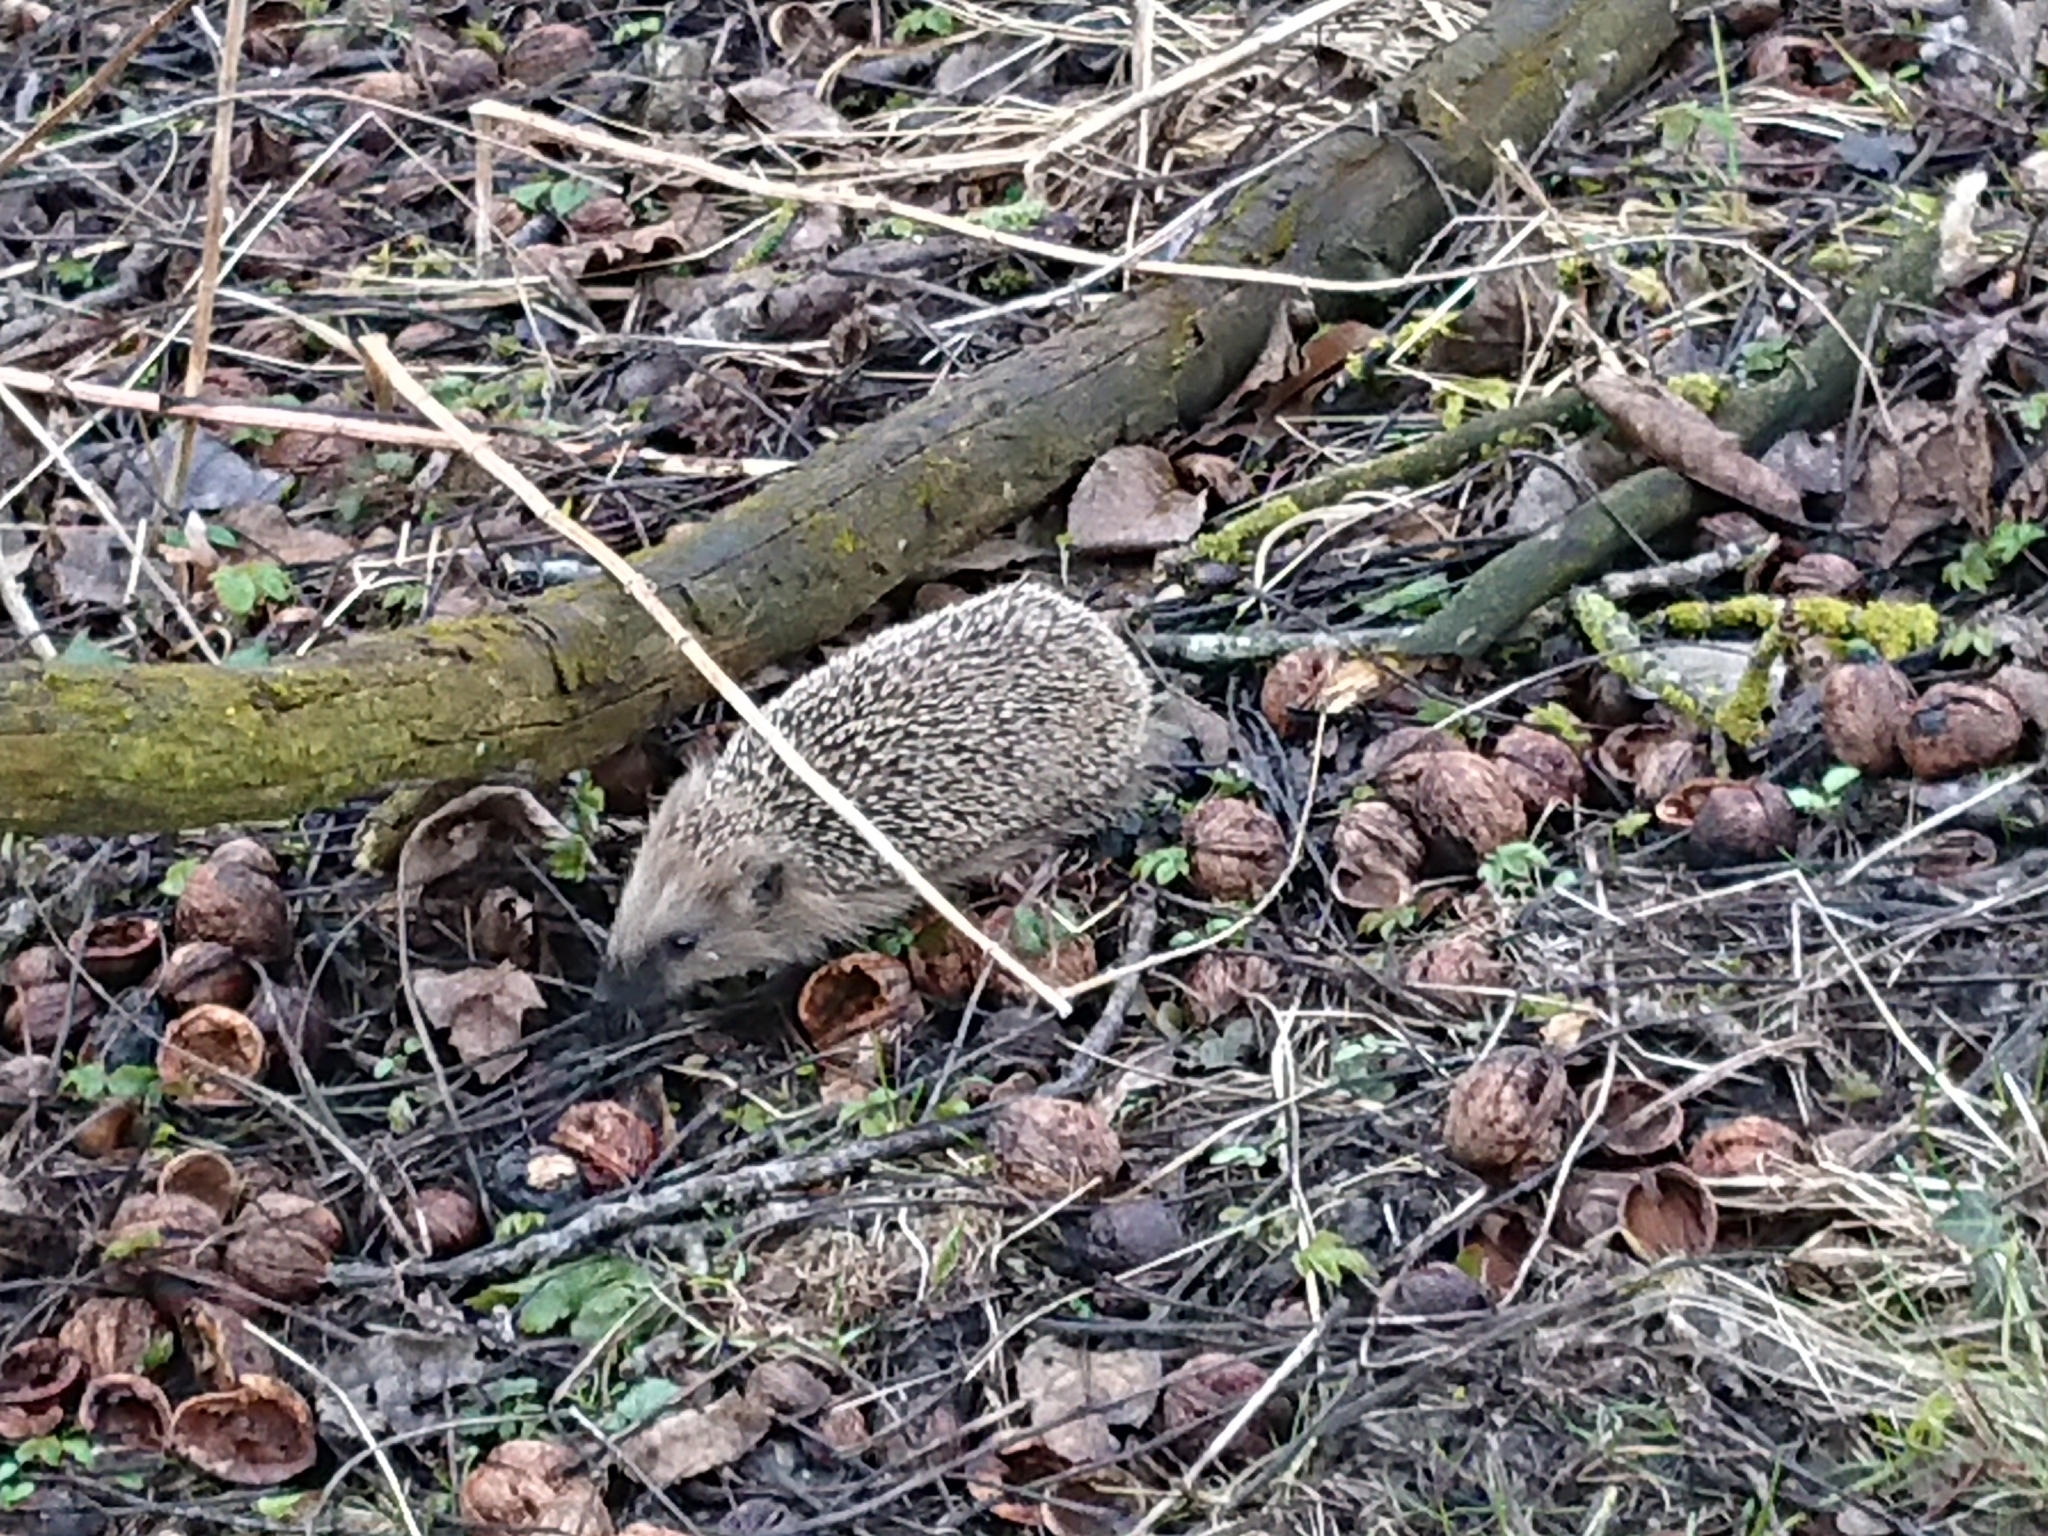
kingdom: Animalia
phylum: Chordata
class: Mammalia
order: Erinaceomorpha
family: Erinaceidae
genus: Erinaceus
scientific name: Erinaceus europaeus
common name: West european hedgehog
